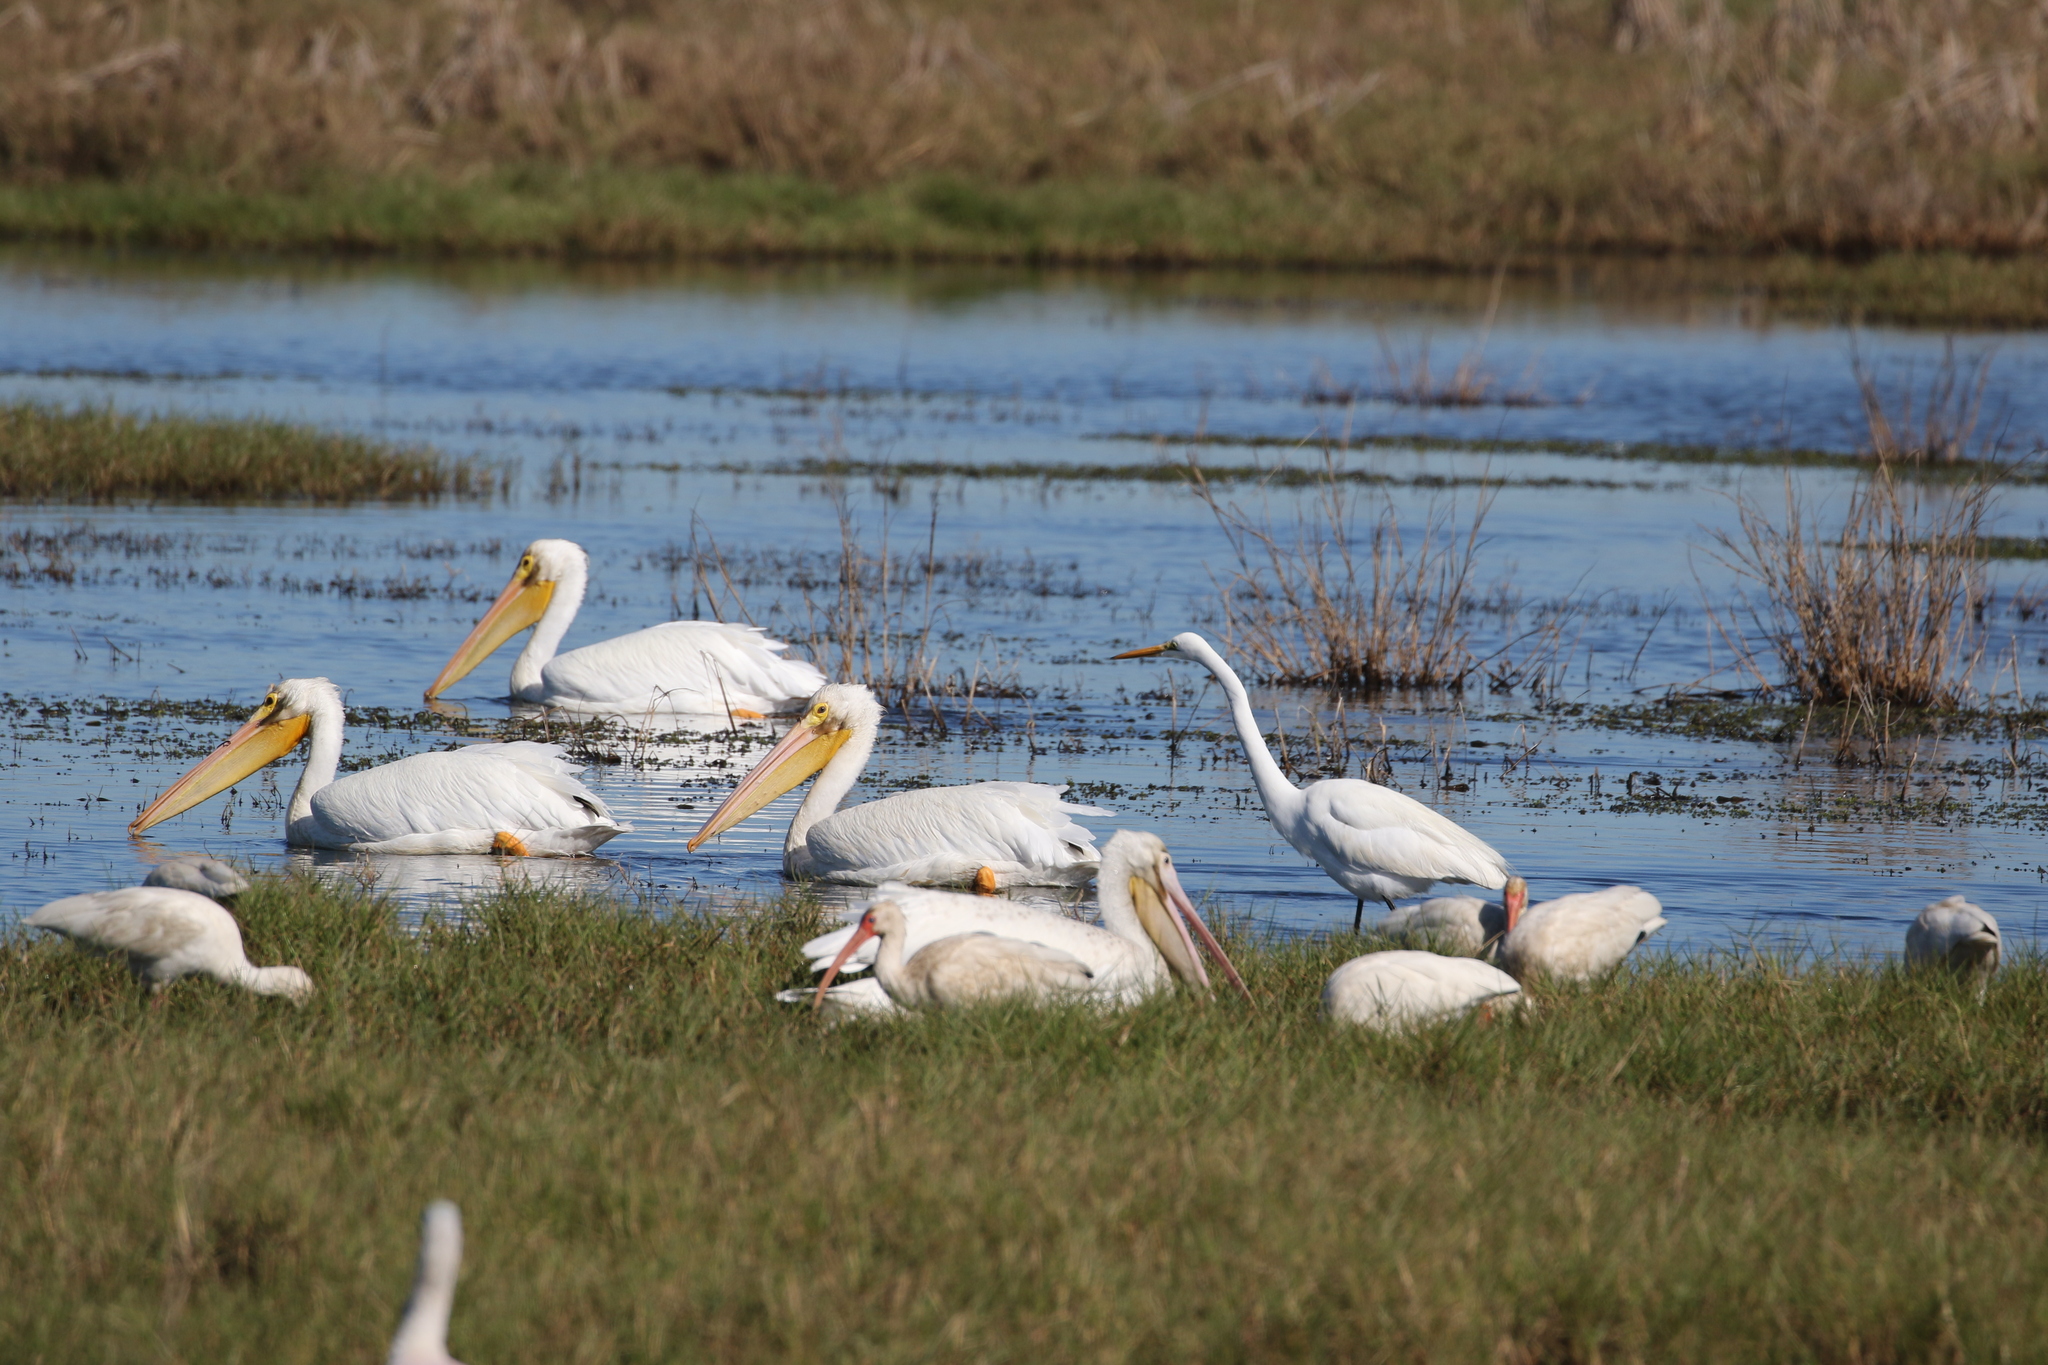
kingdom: Animalia
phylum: Chordata
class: Aves
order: Pelecaniformes
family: Threskiornithidae
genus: Eudocimus
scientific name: Eudocimus albus
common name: White ibis
